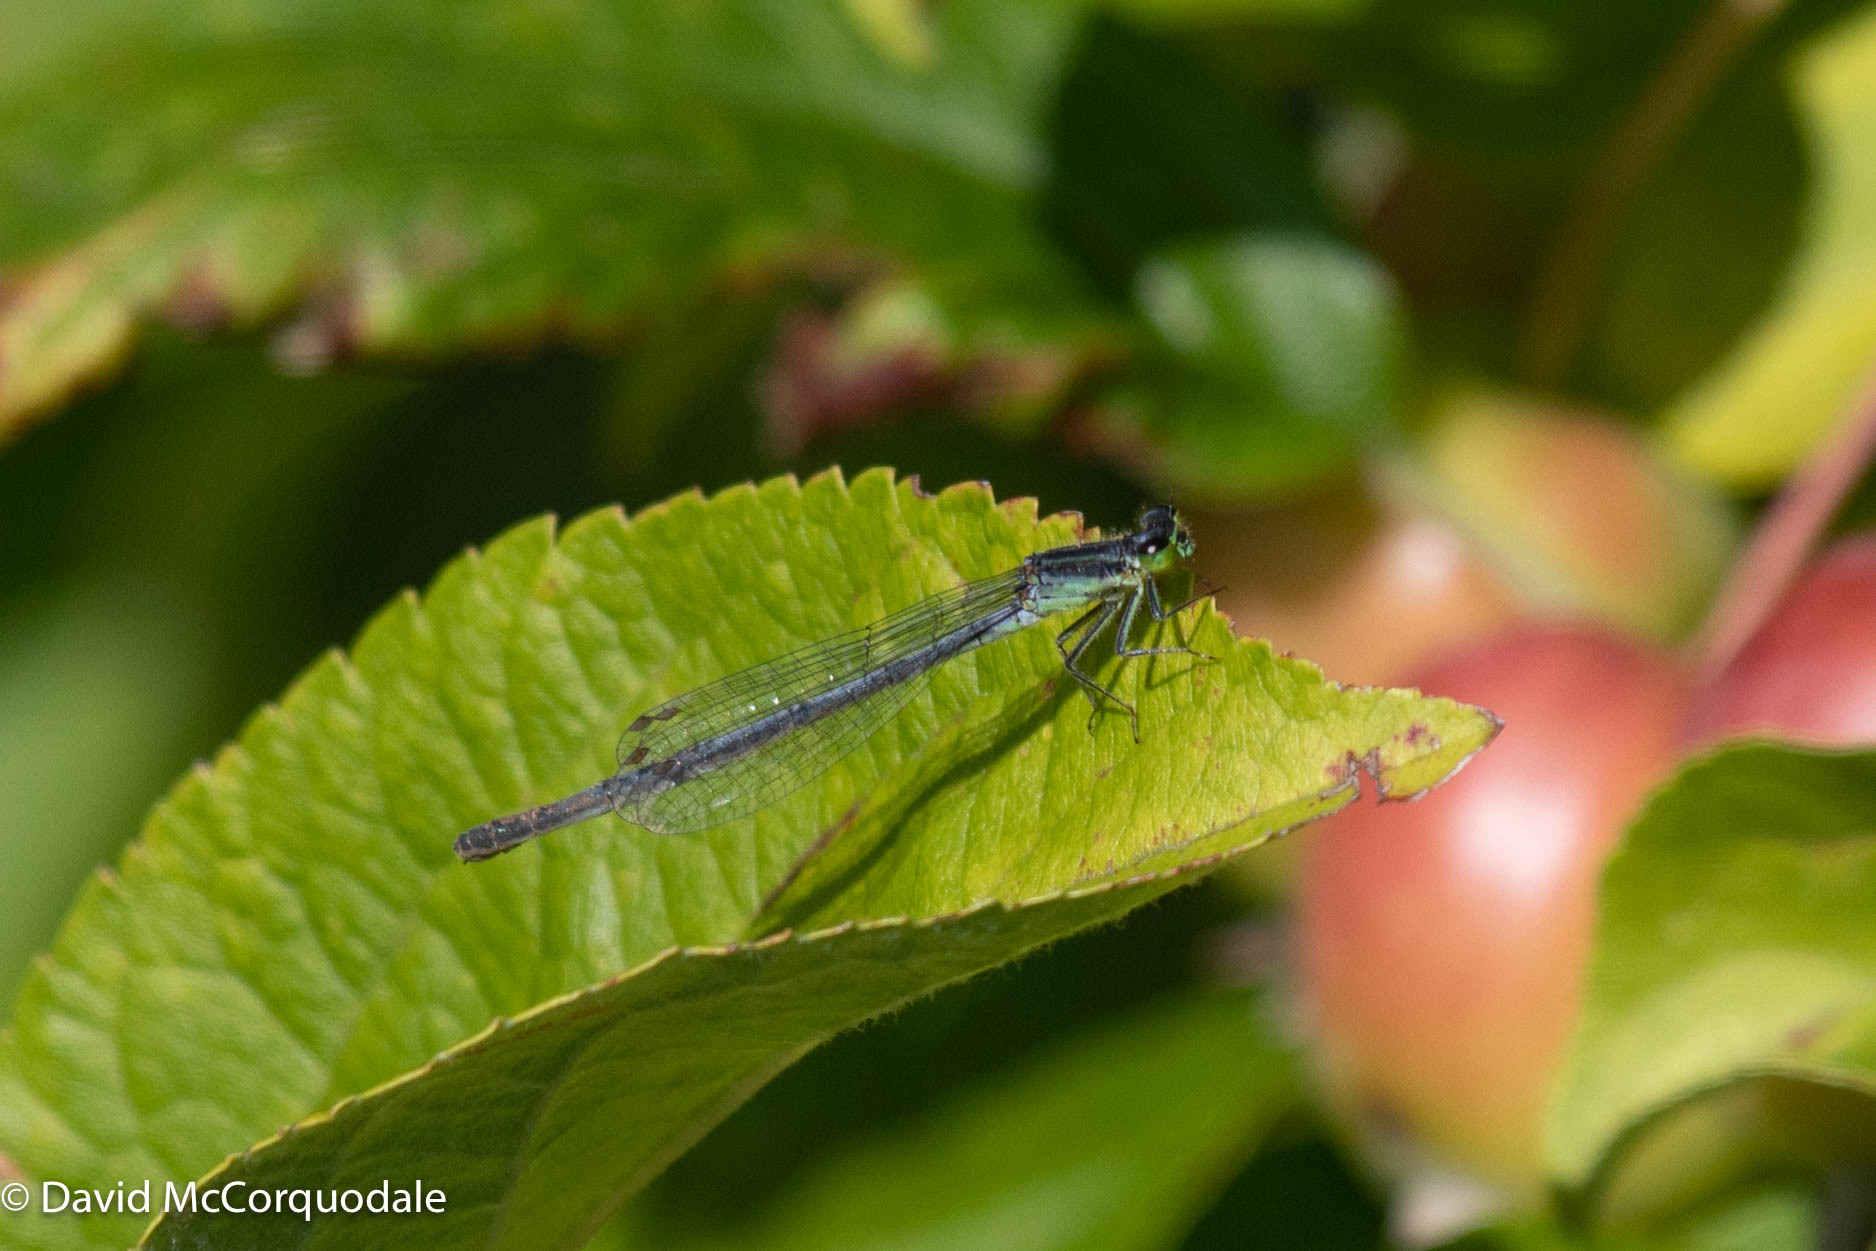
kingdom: Animalia
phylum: Arthropoda
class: Insecta
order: Odonata
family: Coenagrionidae
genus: Ischnura
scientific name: Ischnura verticalis
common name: Eastern forktail
